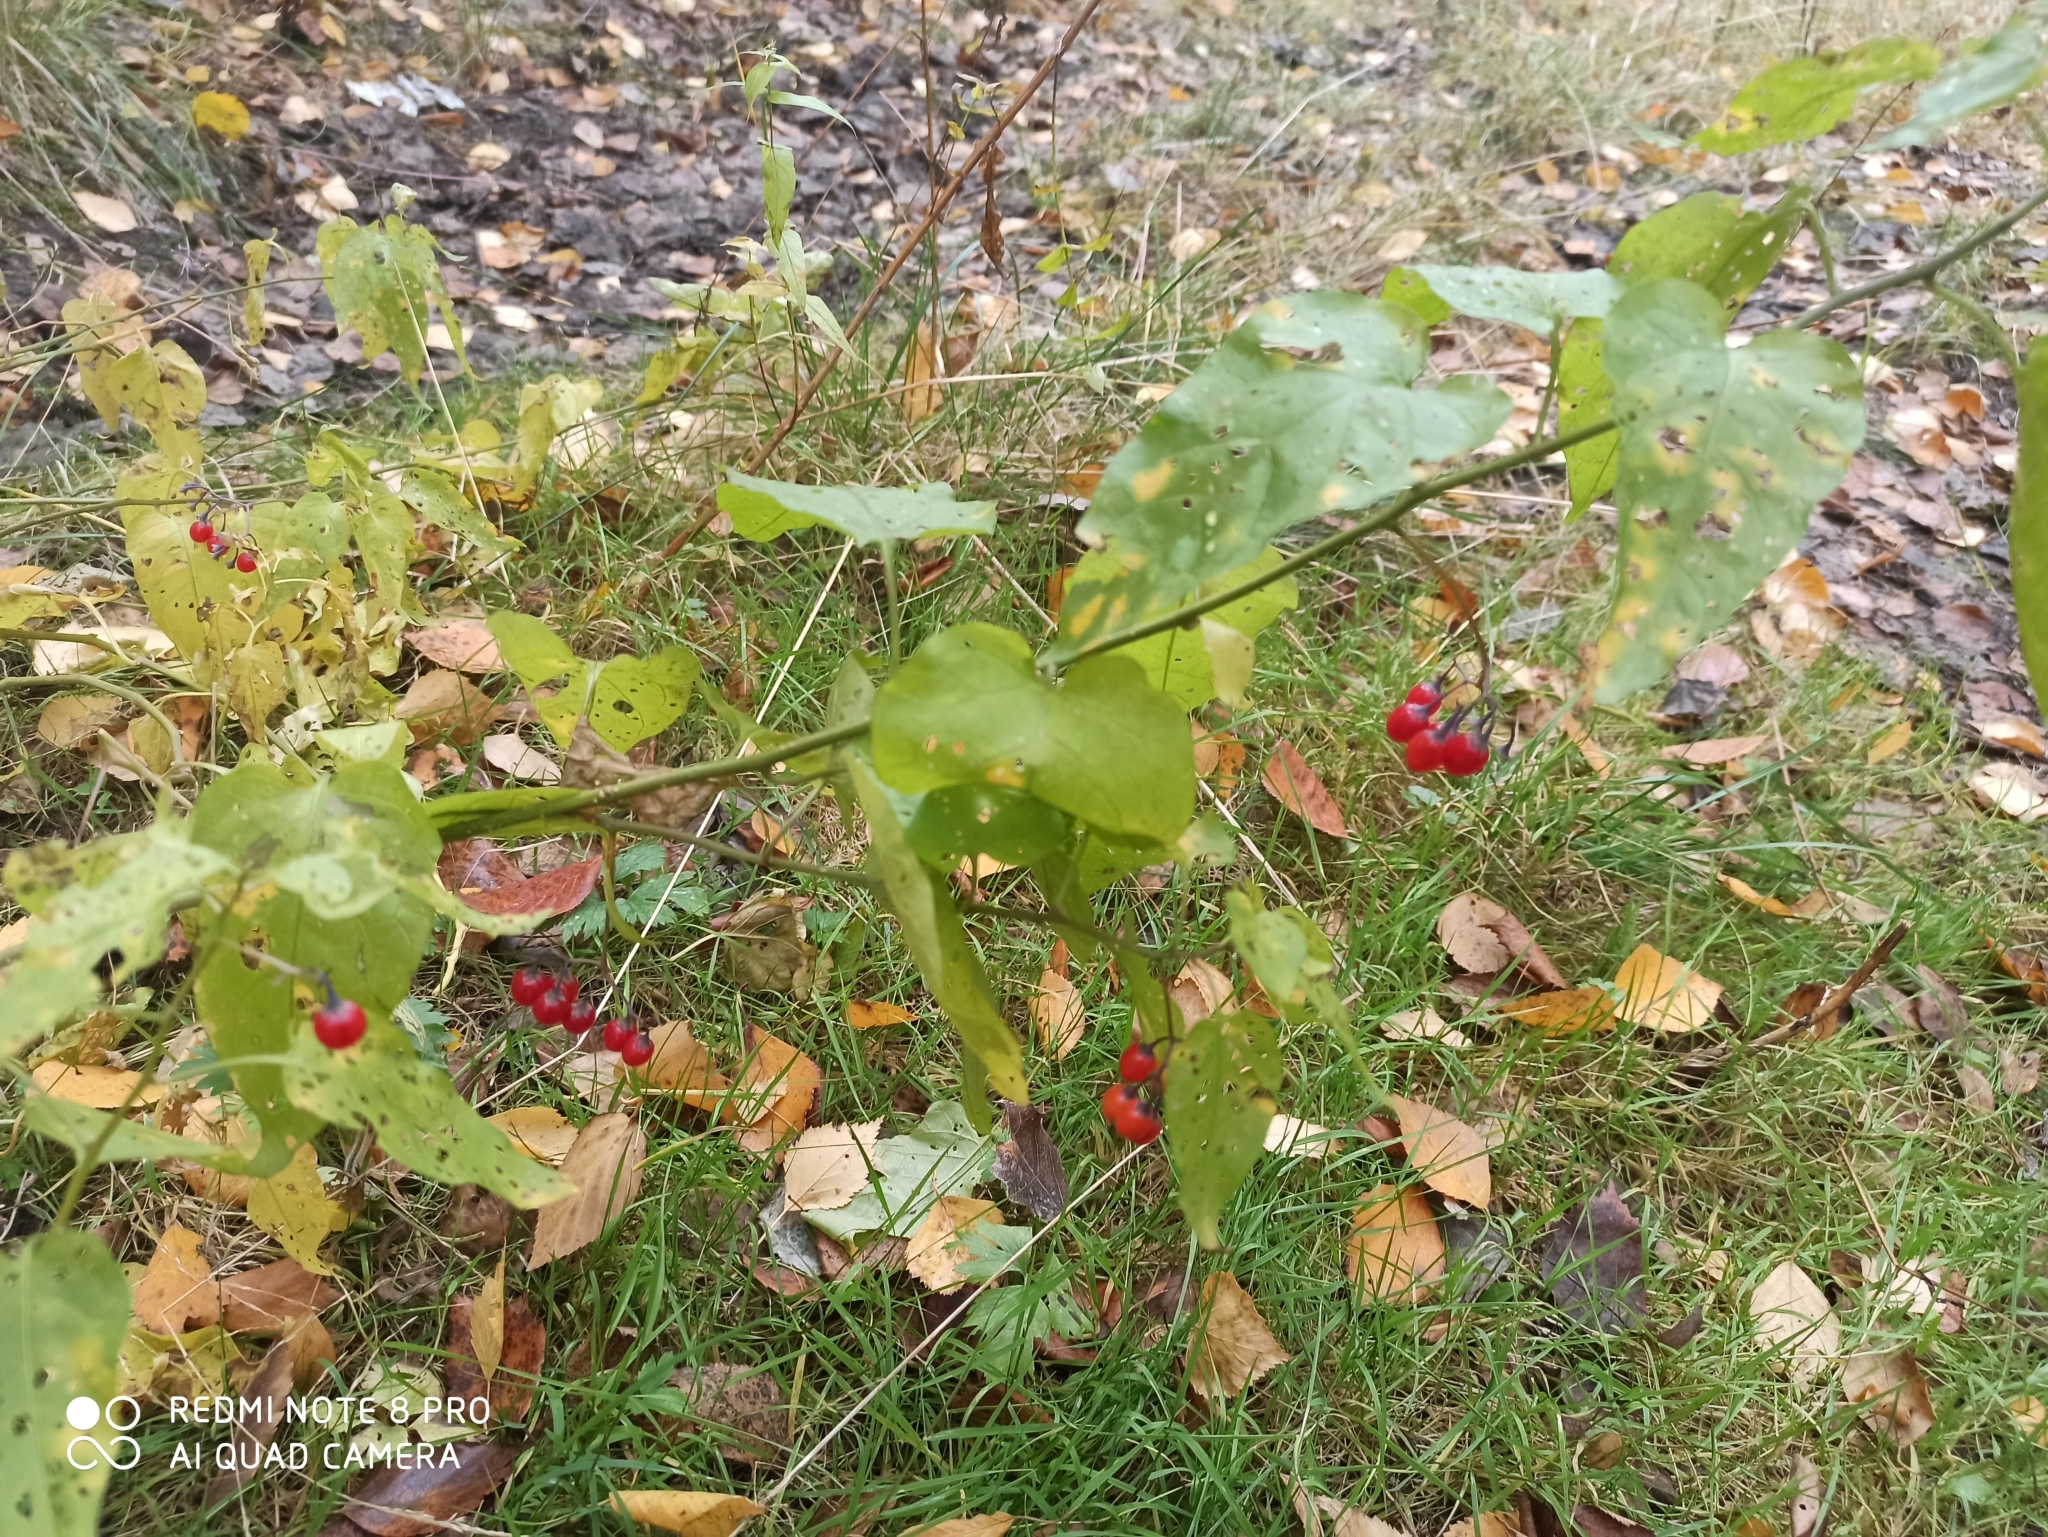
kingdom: Plantae
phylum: Tracheophyta
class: Magnoliopsida
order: Solanales
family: Solanaceae
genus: Solanum
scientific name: Solanum dulcamara
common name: Climbing nightshade
